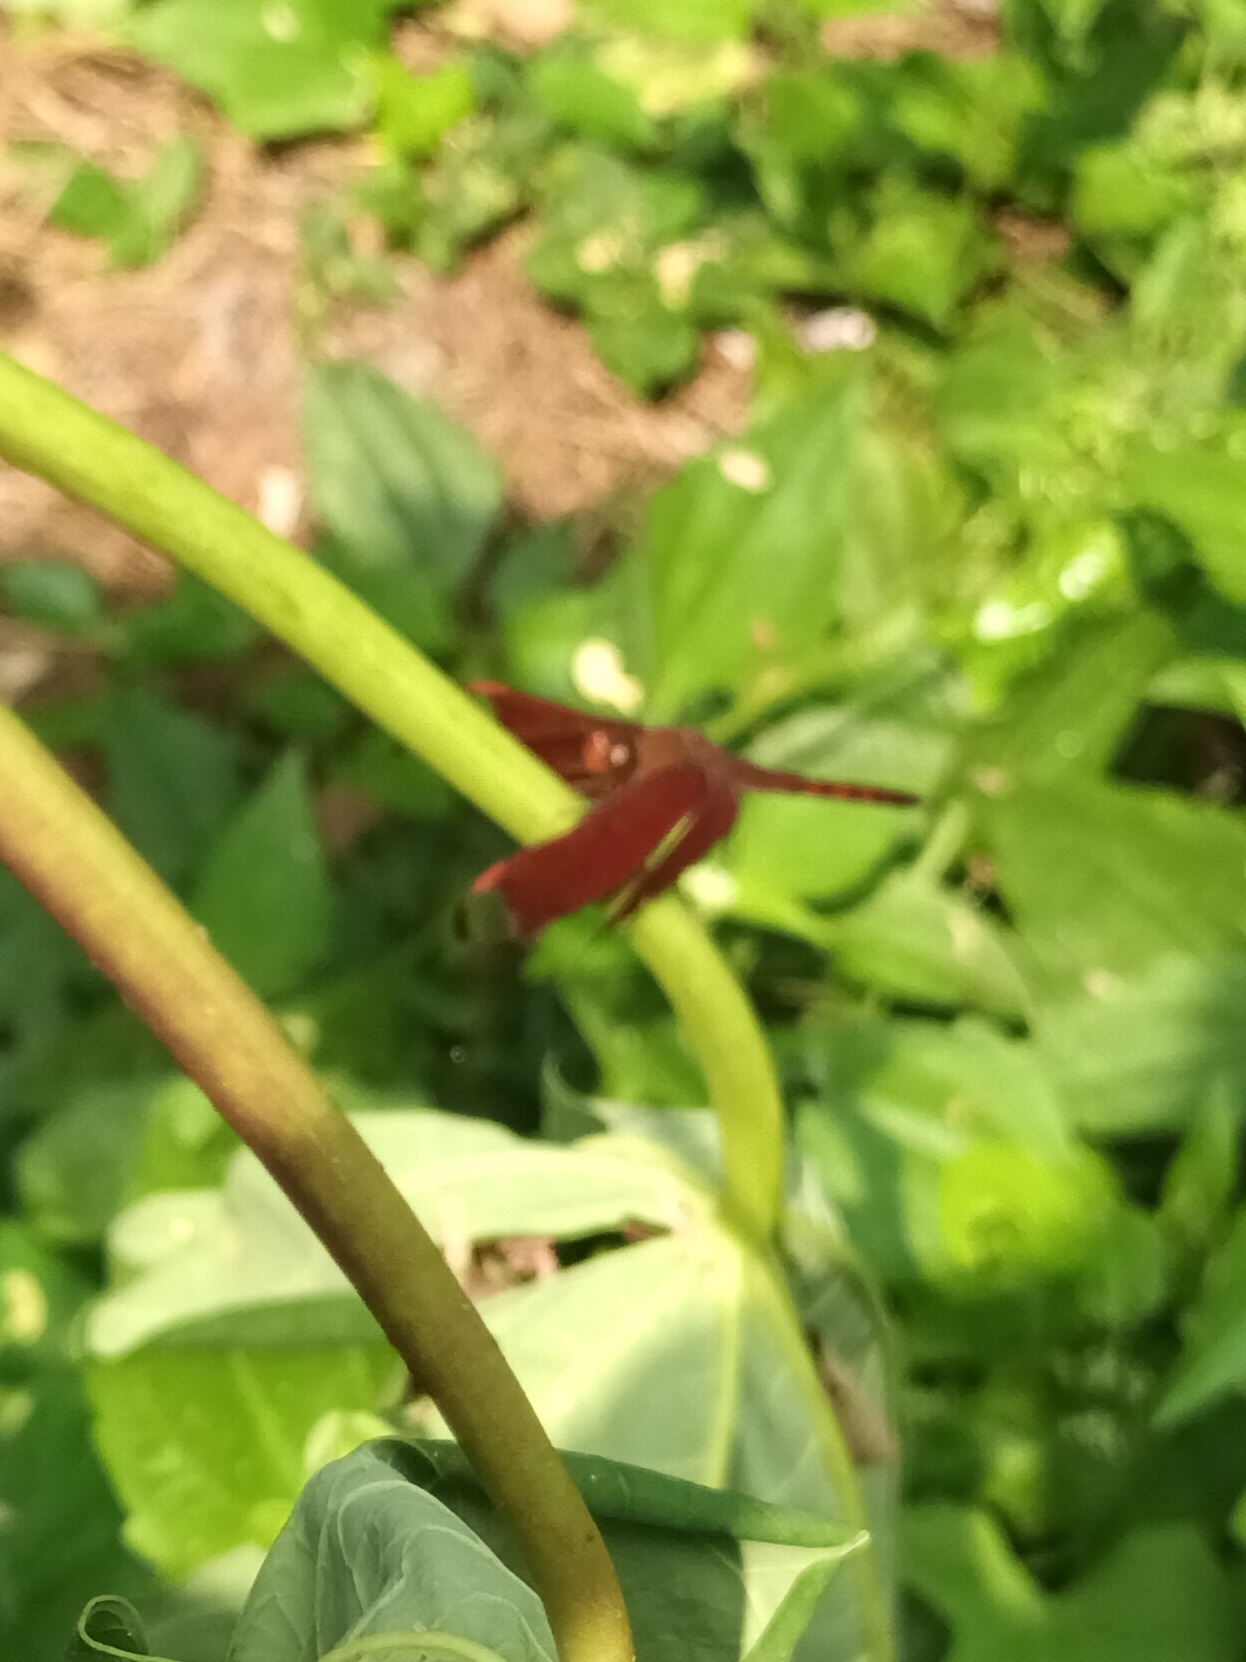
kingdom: Animalia
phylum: Arthropoda
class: Insecta
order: Odonata
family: Libellulidae
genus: Neurothemis
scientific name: Neurothemis fulvia
